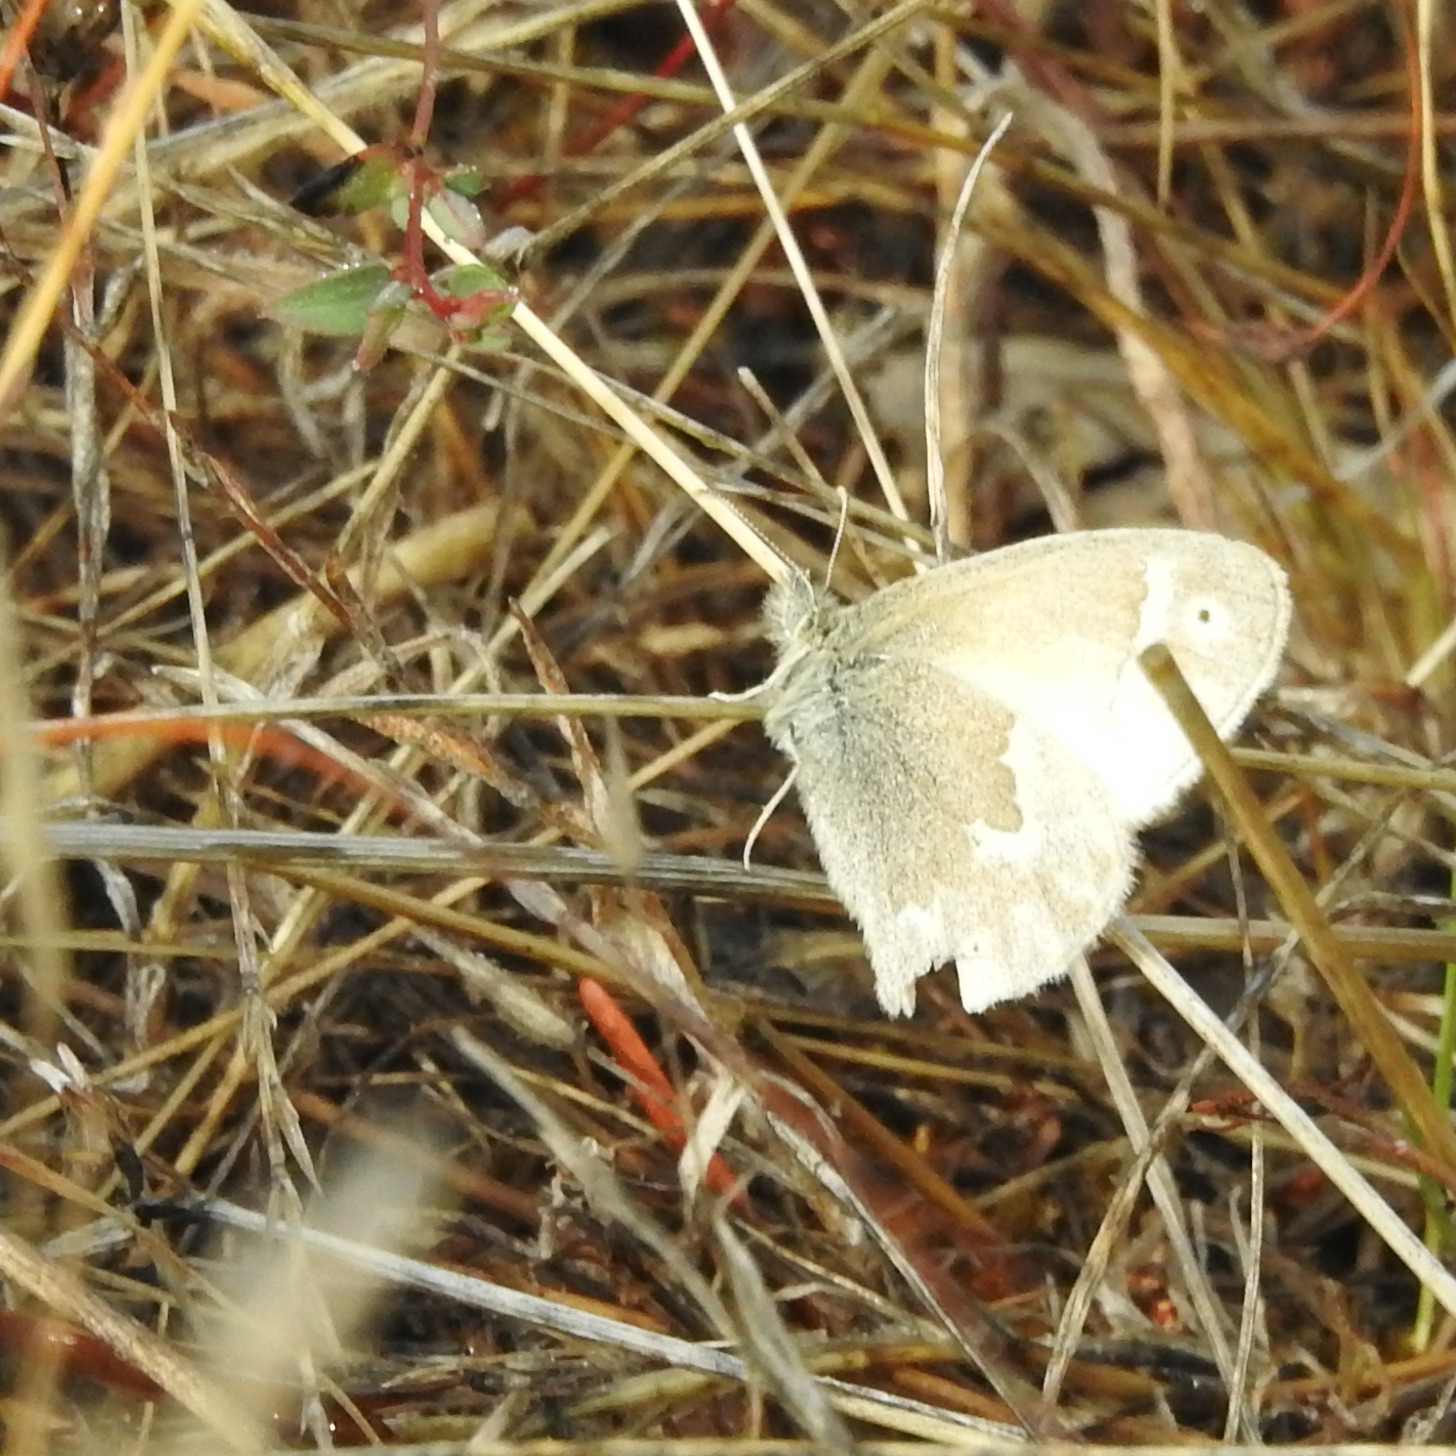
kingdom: Animalia
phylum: Arthropoda
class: Insecta
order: Lepidoptera
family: Nymphalidae
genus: Coenonympha
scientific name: Coenonympha california
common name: Common ringlet
